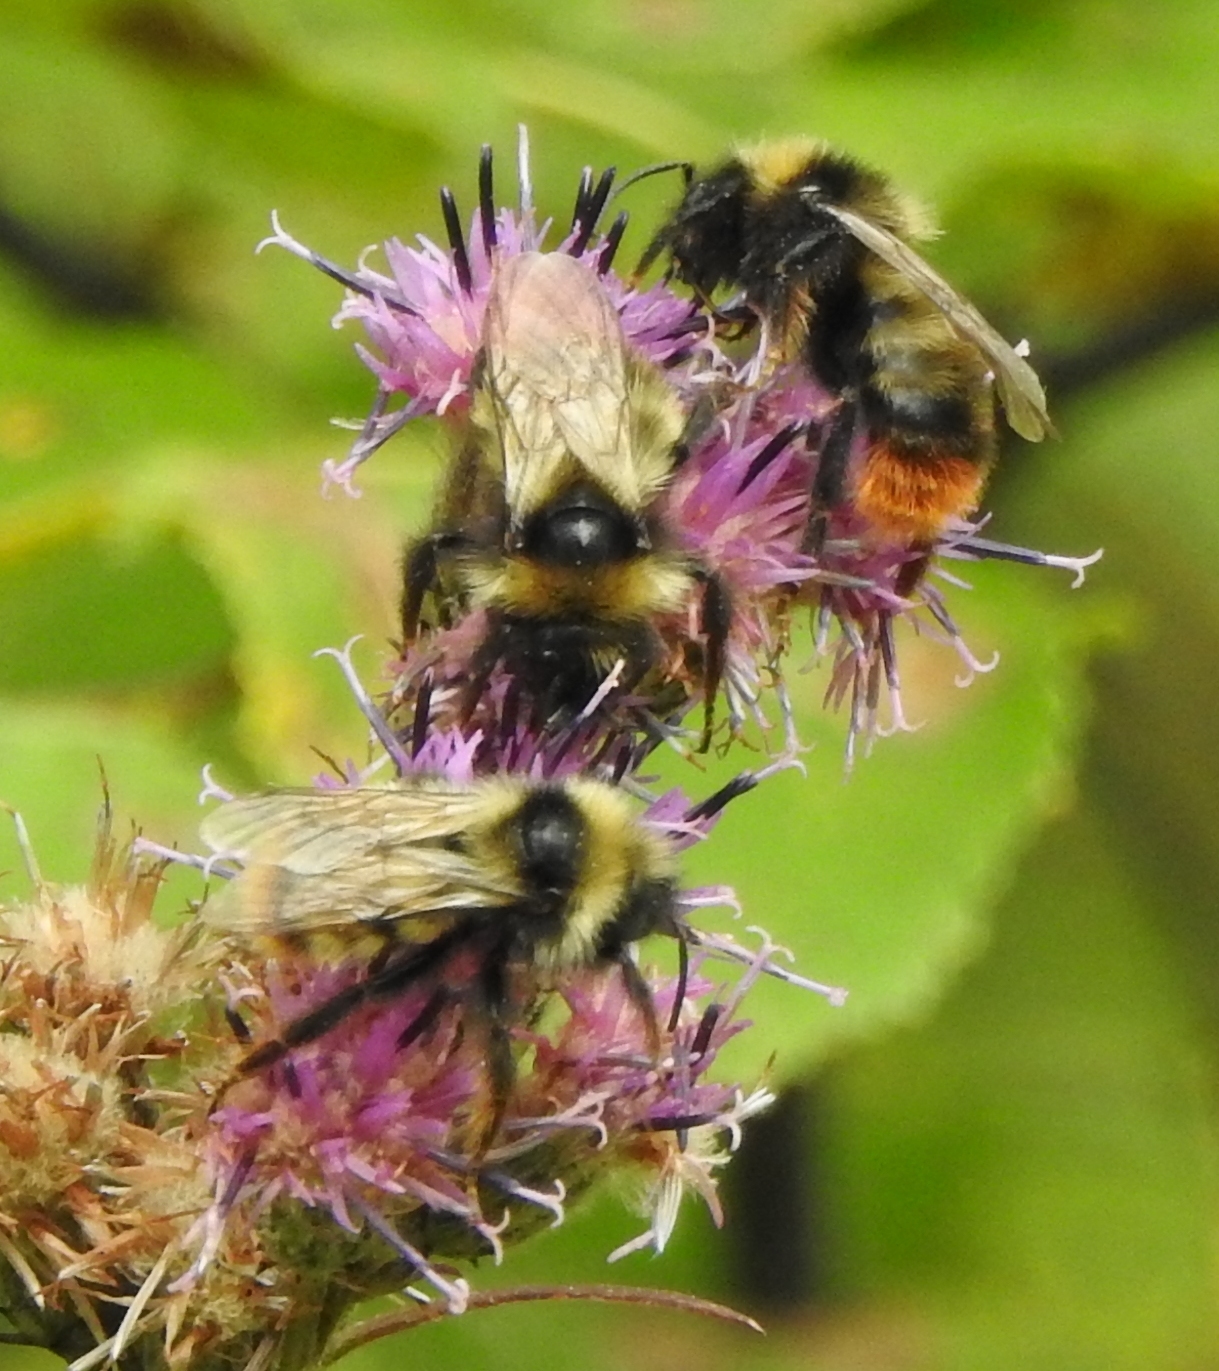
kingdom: Animalia
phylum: Arthropoda
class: Insecta
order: Hymenoptera
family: Apidae
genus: Bombus
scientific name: Bombus rupestris
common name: Hill cuckoo-bee
